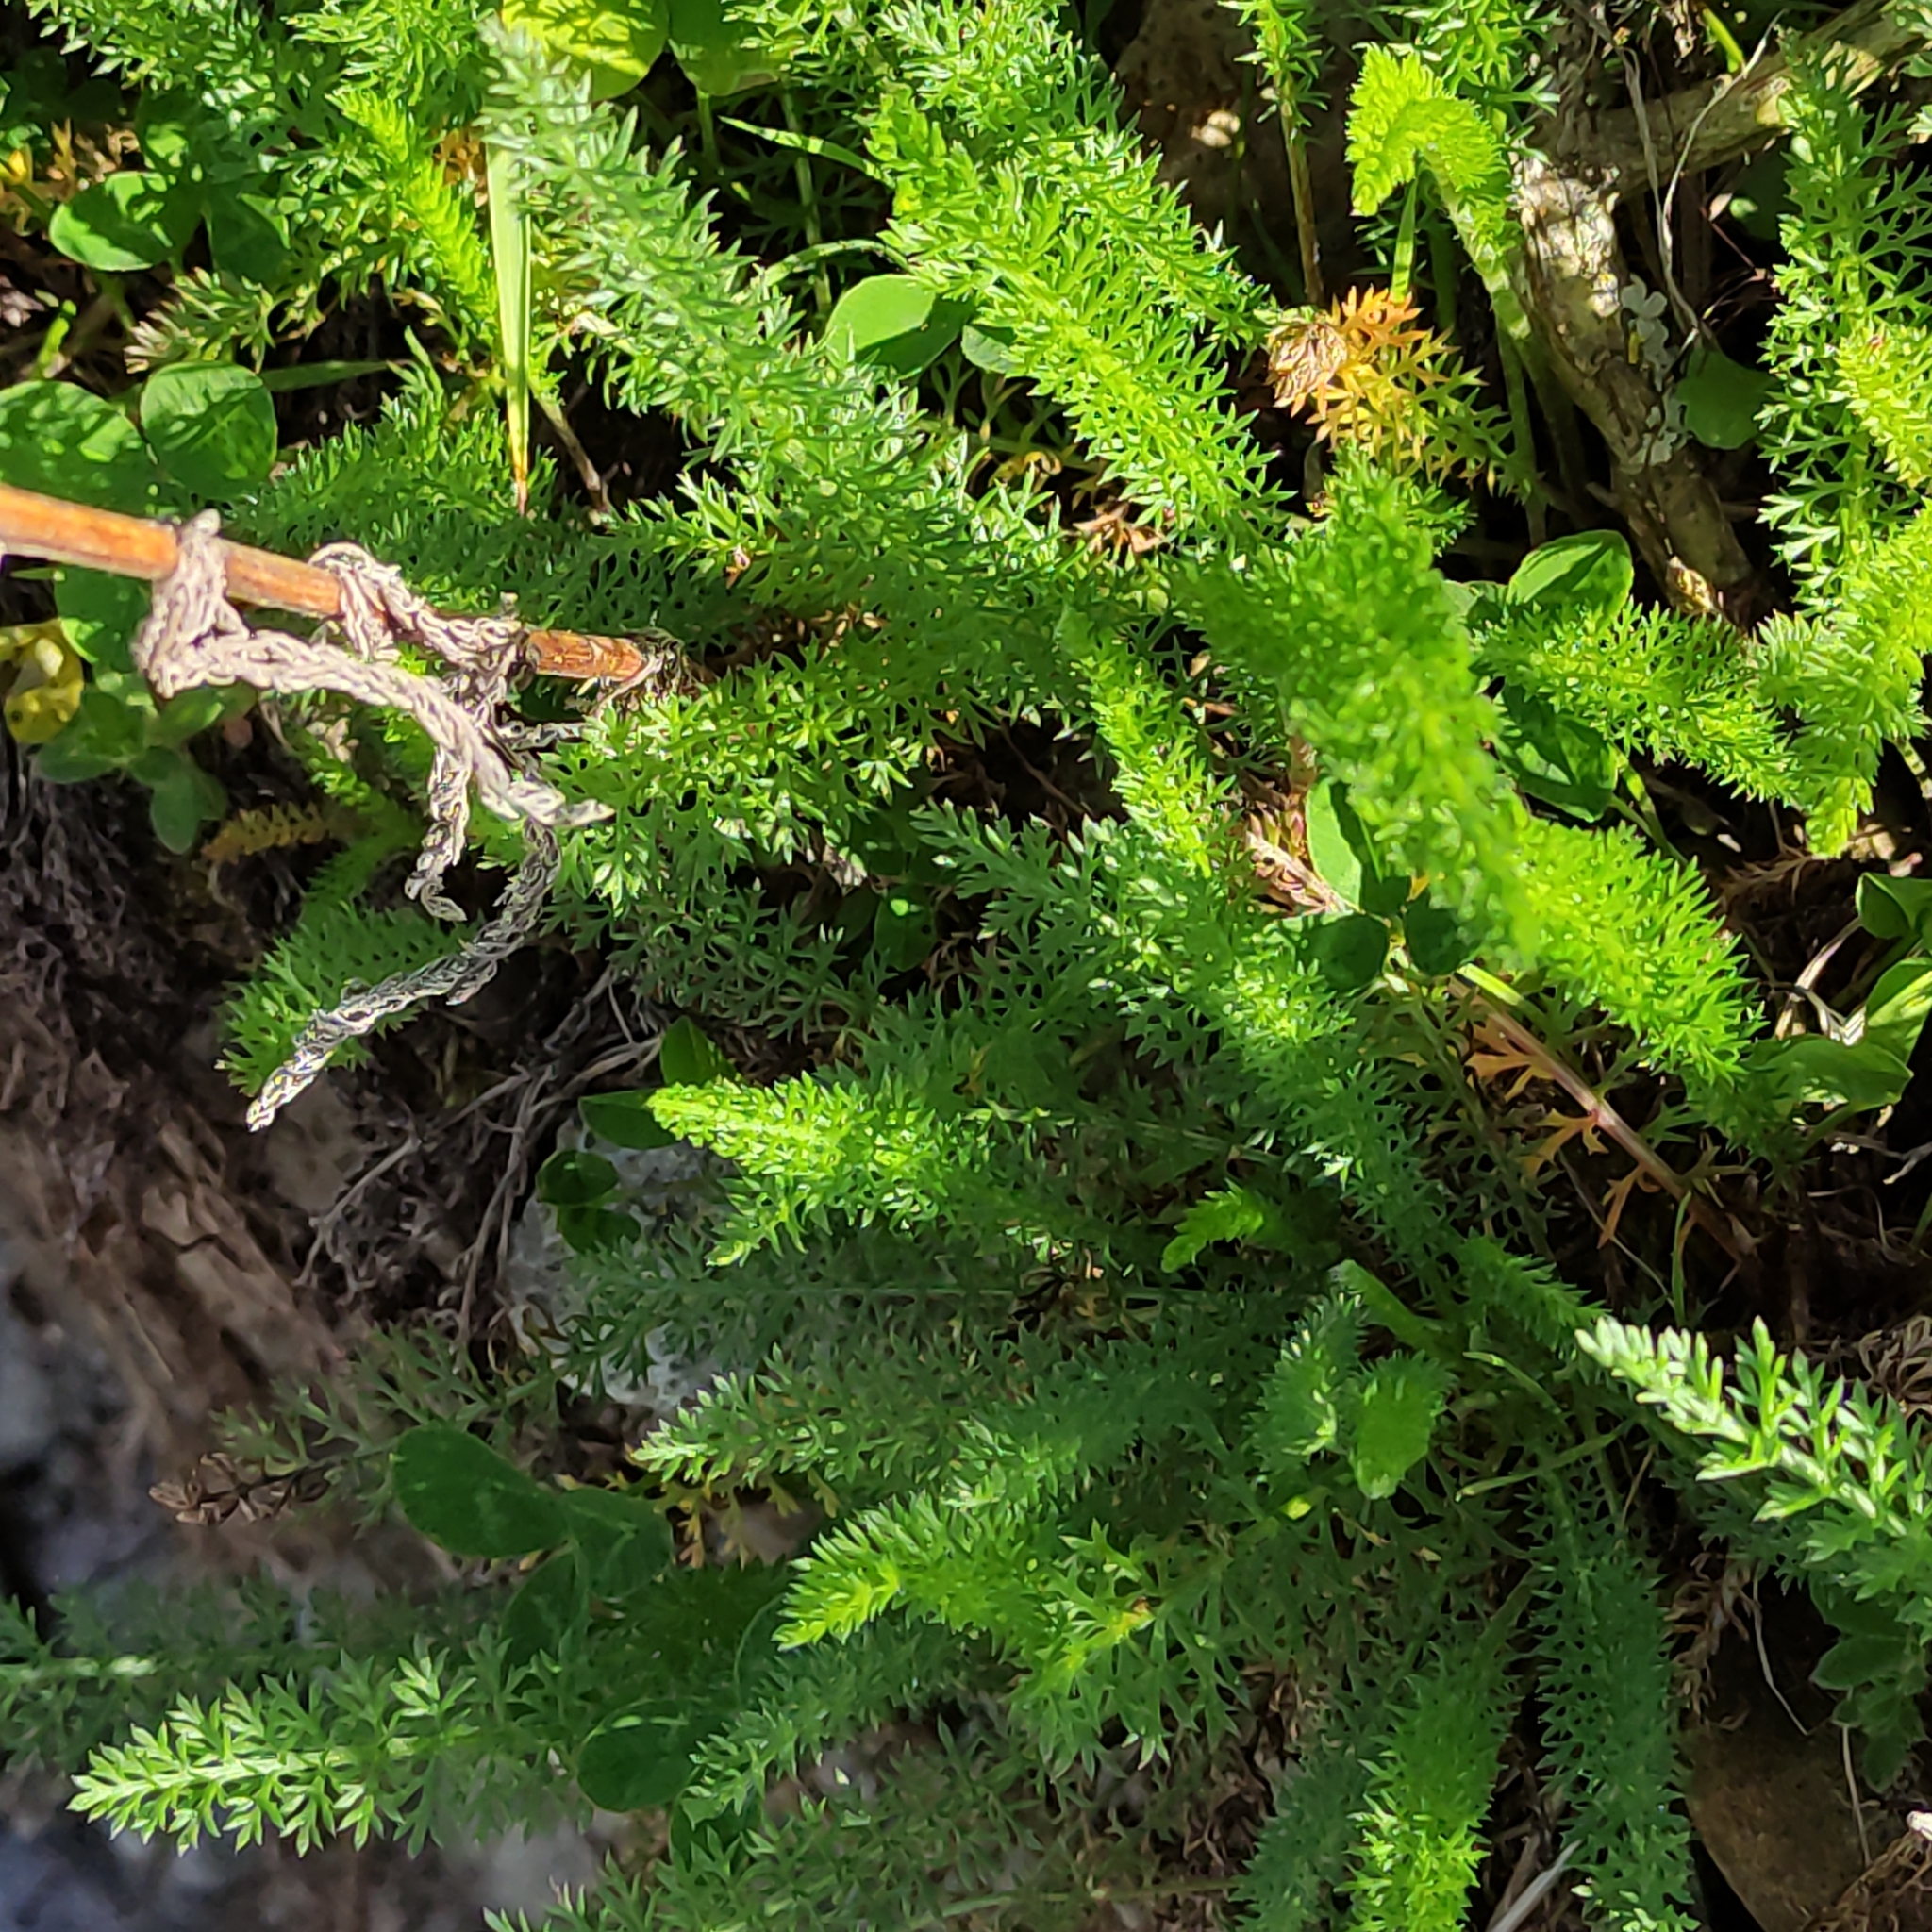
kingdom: Plantae
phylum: Tracheophyta
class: Magnoliopsida
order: Asterales
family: Asteraceae
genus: Achillea
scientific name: Achillea millefolium
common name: Yarrow
